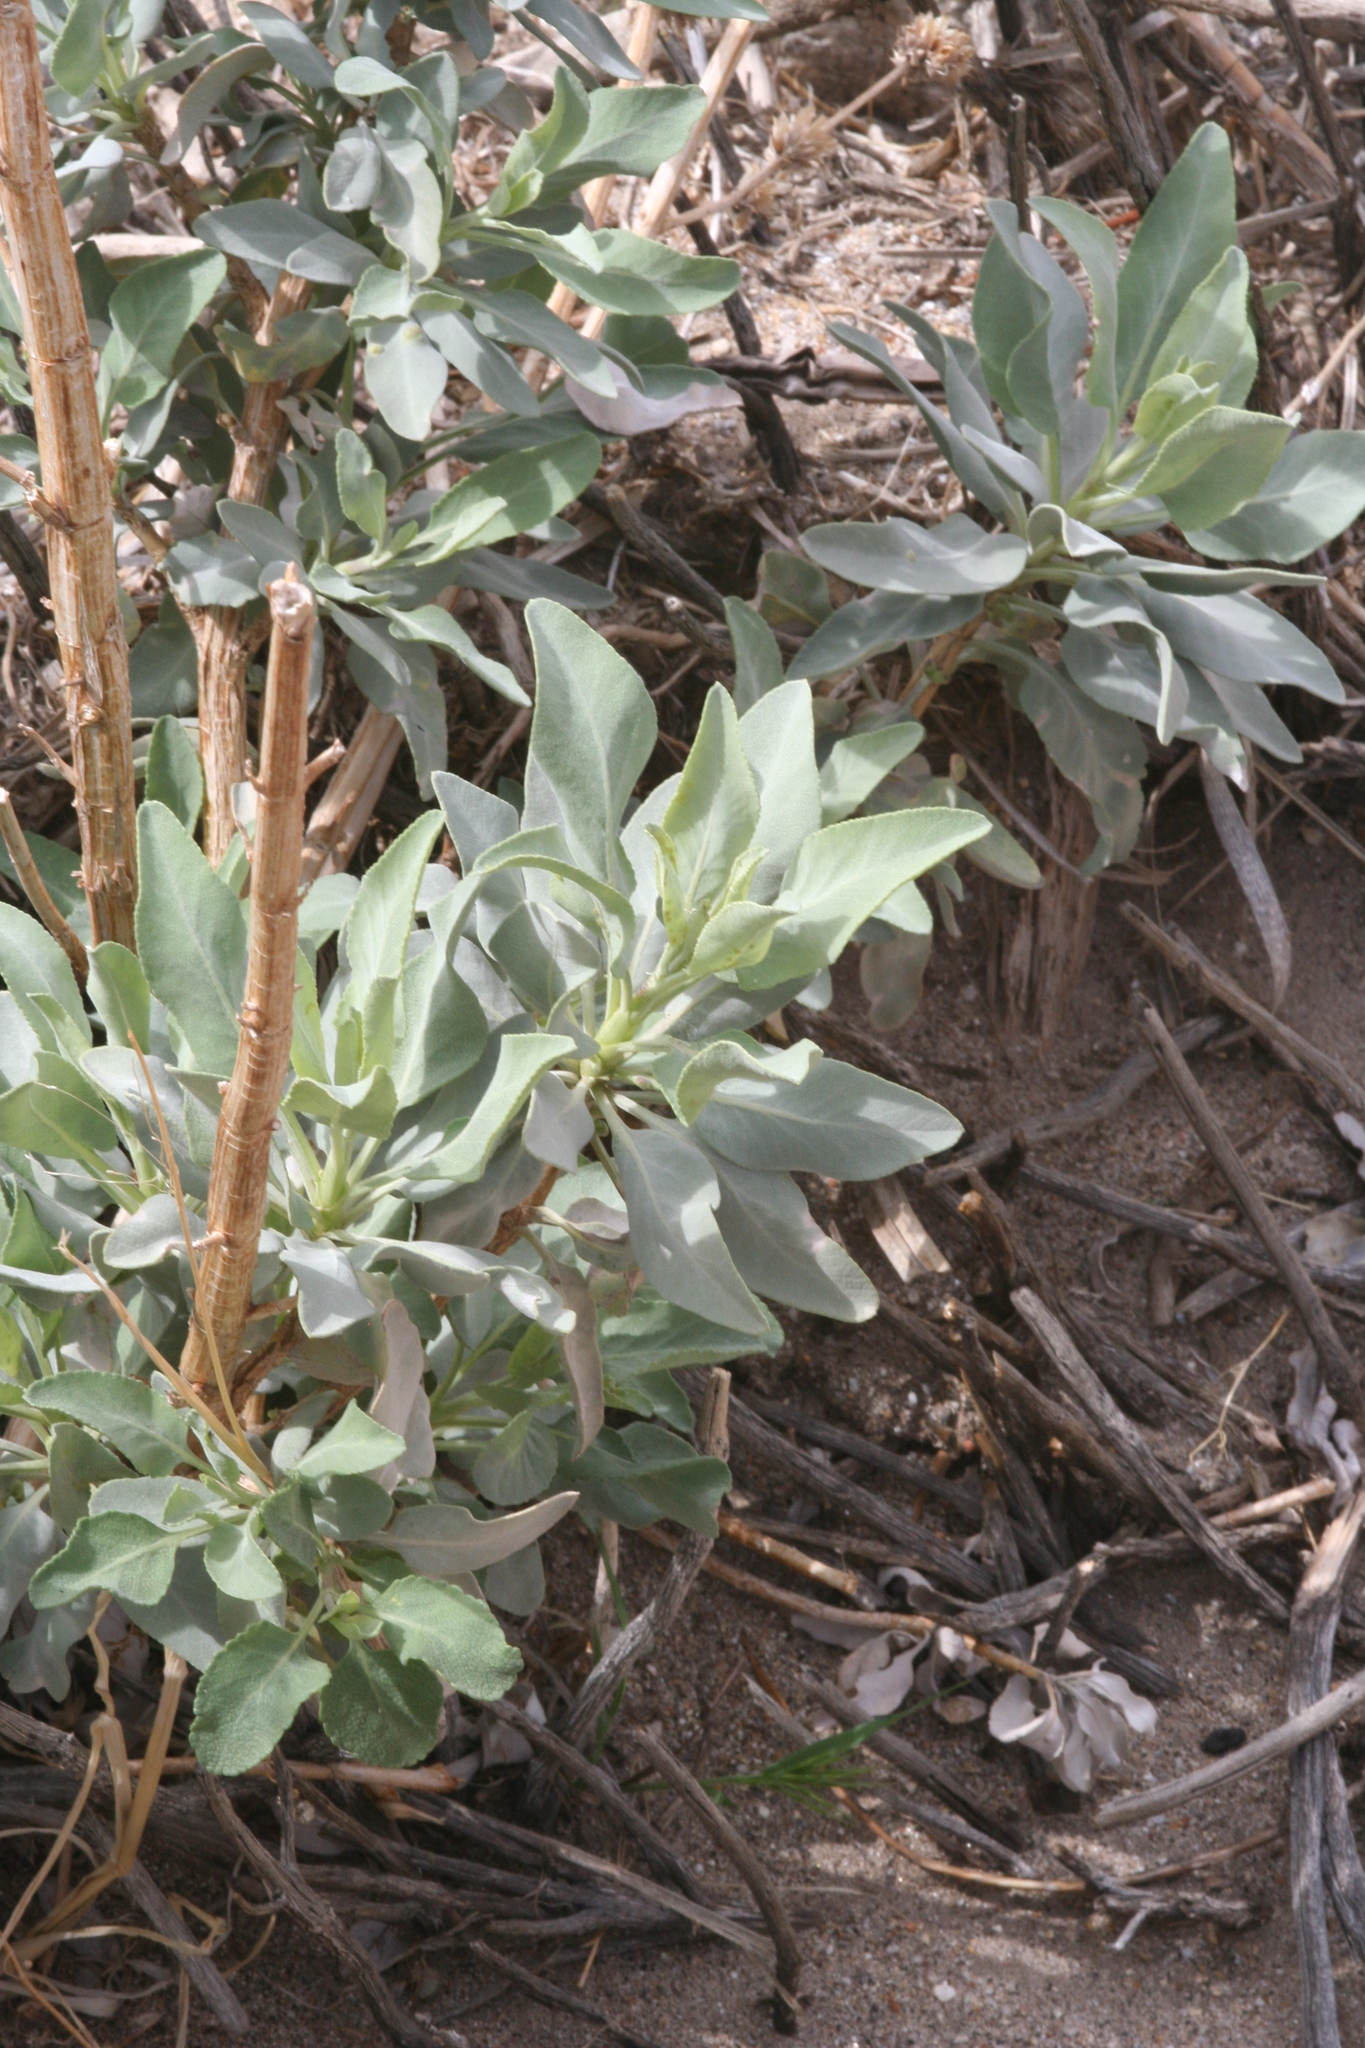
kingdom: Plantae
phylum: Tracheophyta
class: Magnoliopsida
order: Lamiales
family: Lamiaceae
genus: Salvia
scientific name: Salvia vaseyi
